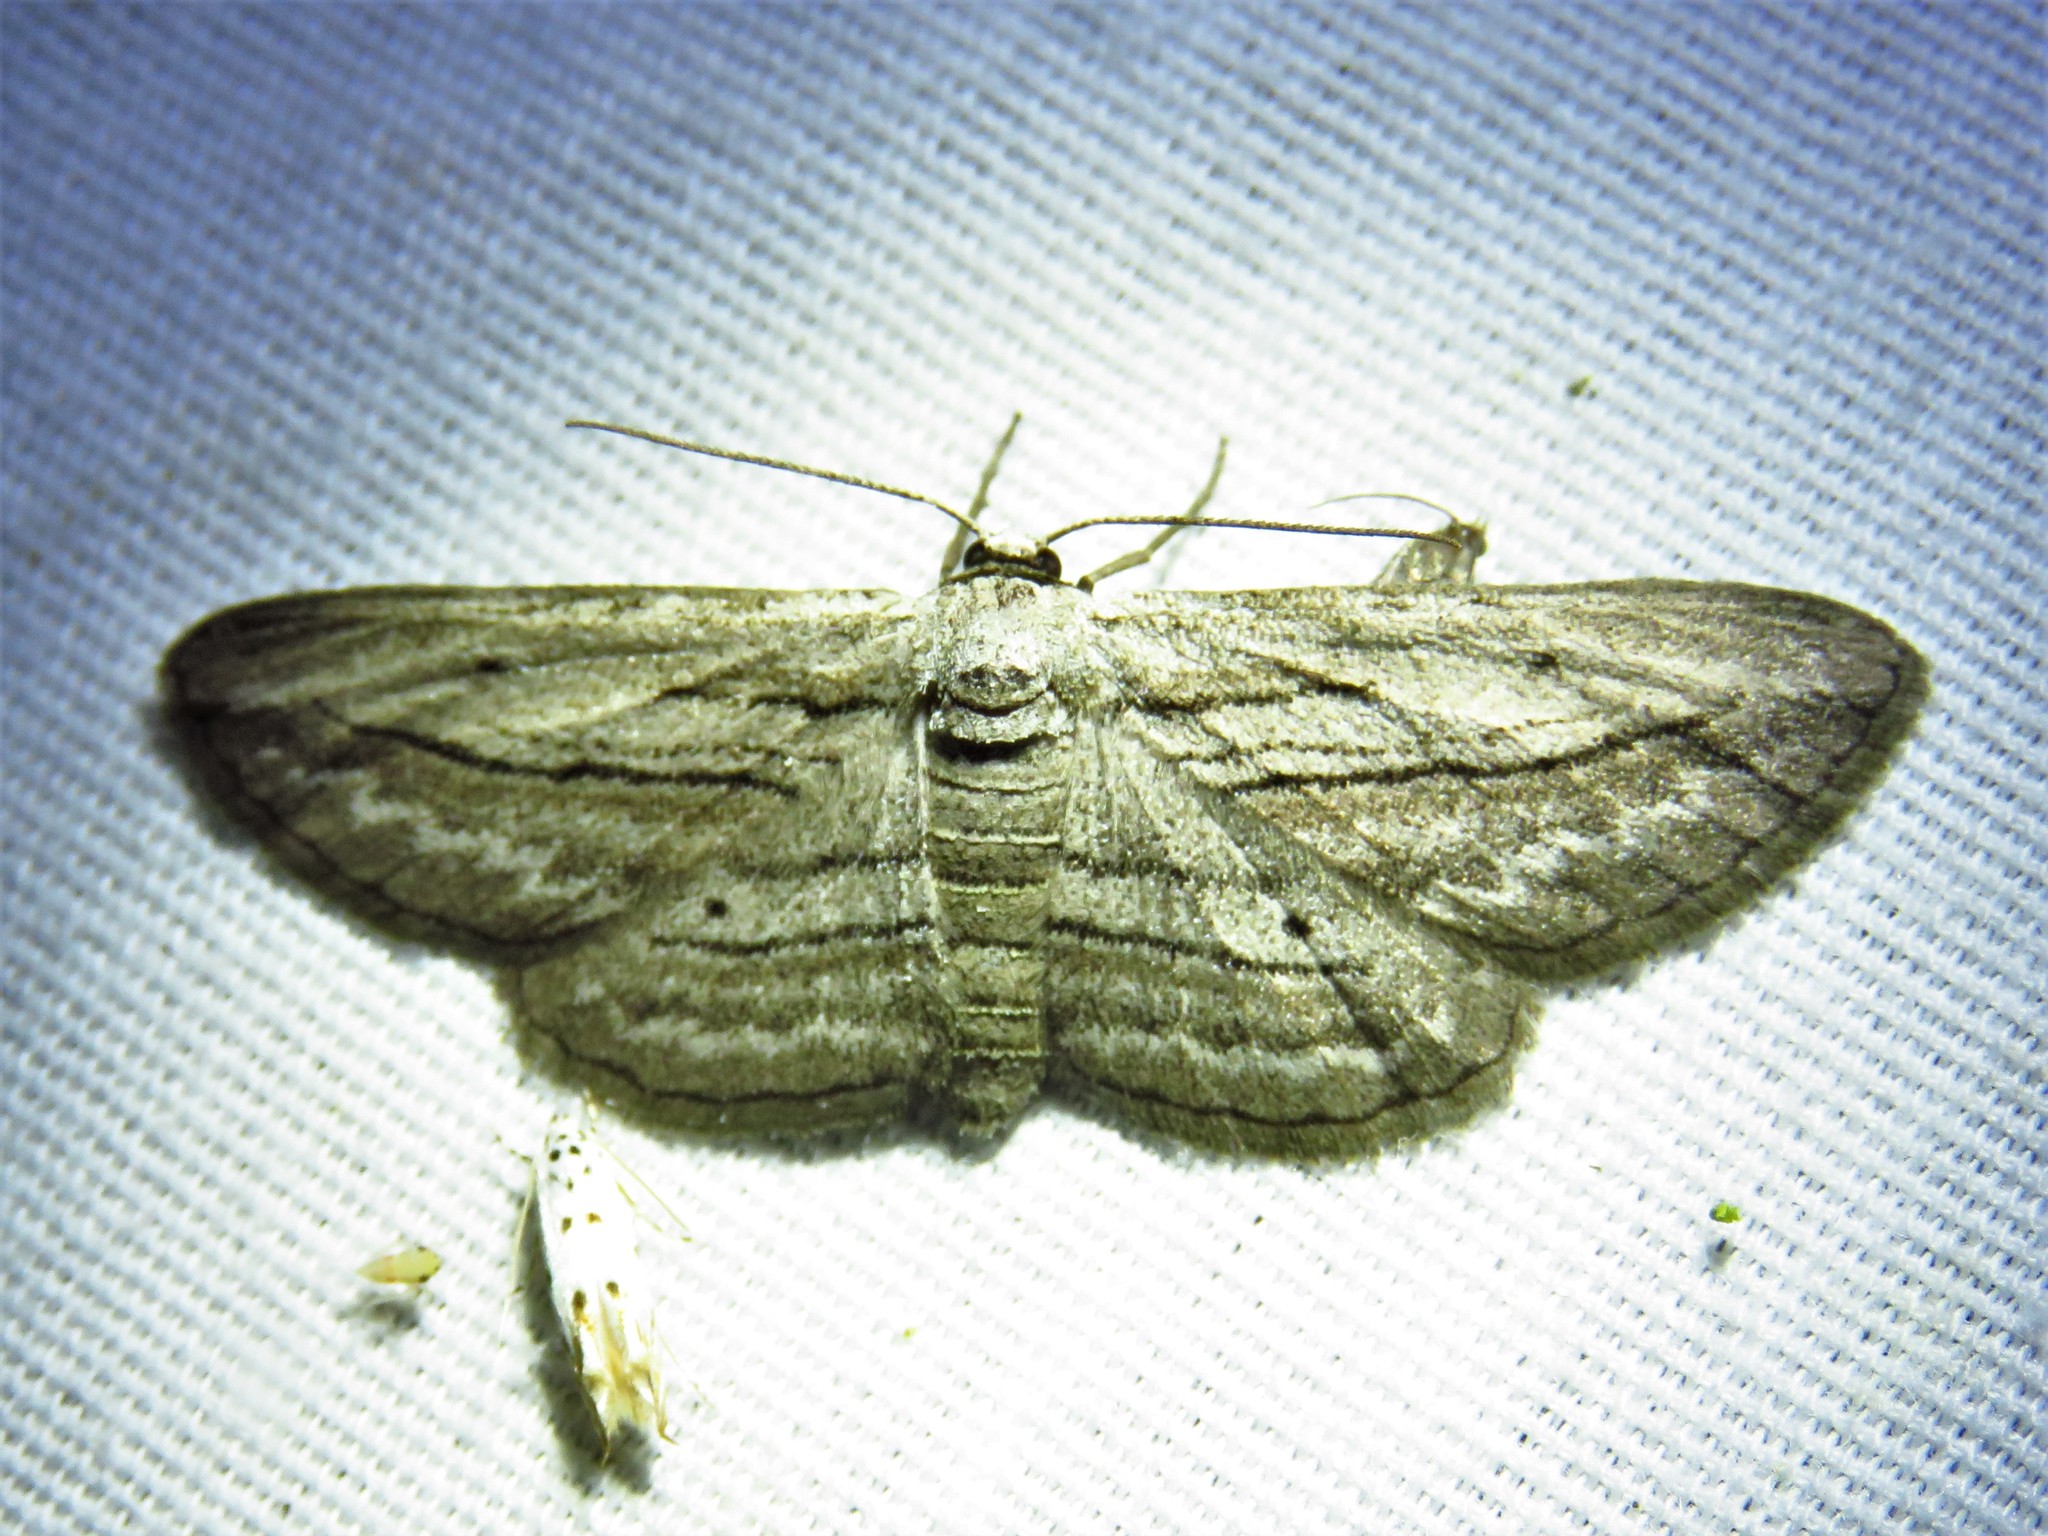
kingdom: Animalia
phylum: Arthropoda
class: Insecta
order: Lepidoptera
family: Geometridae
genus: Glena
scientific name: Glena quinquelinearia
